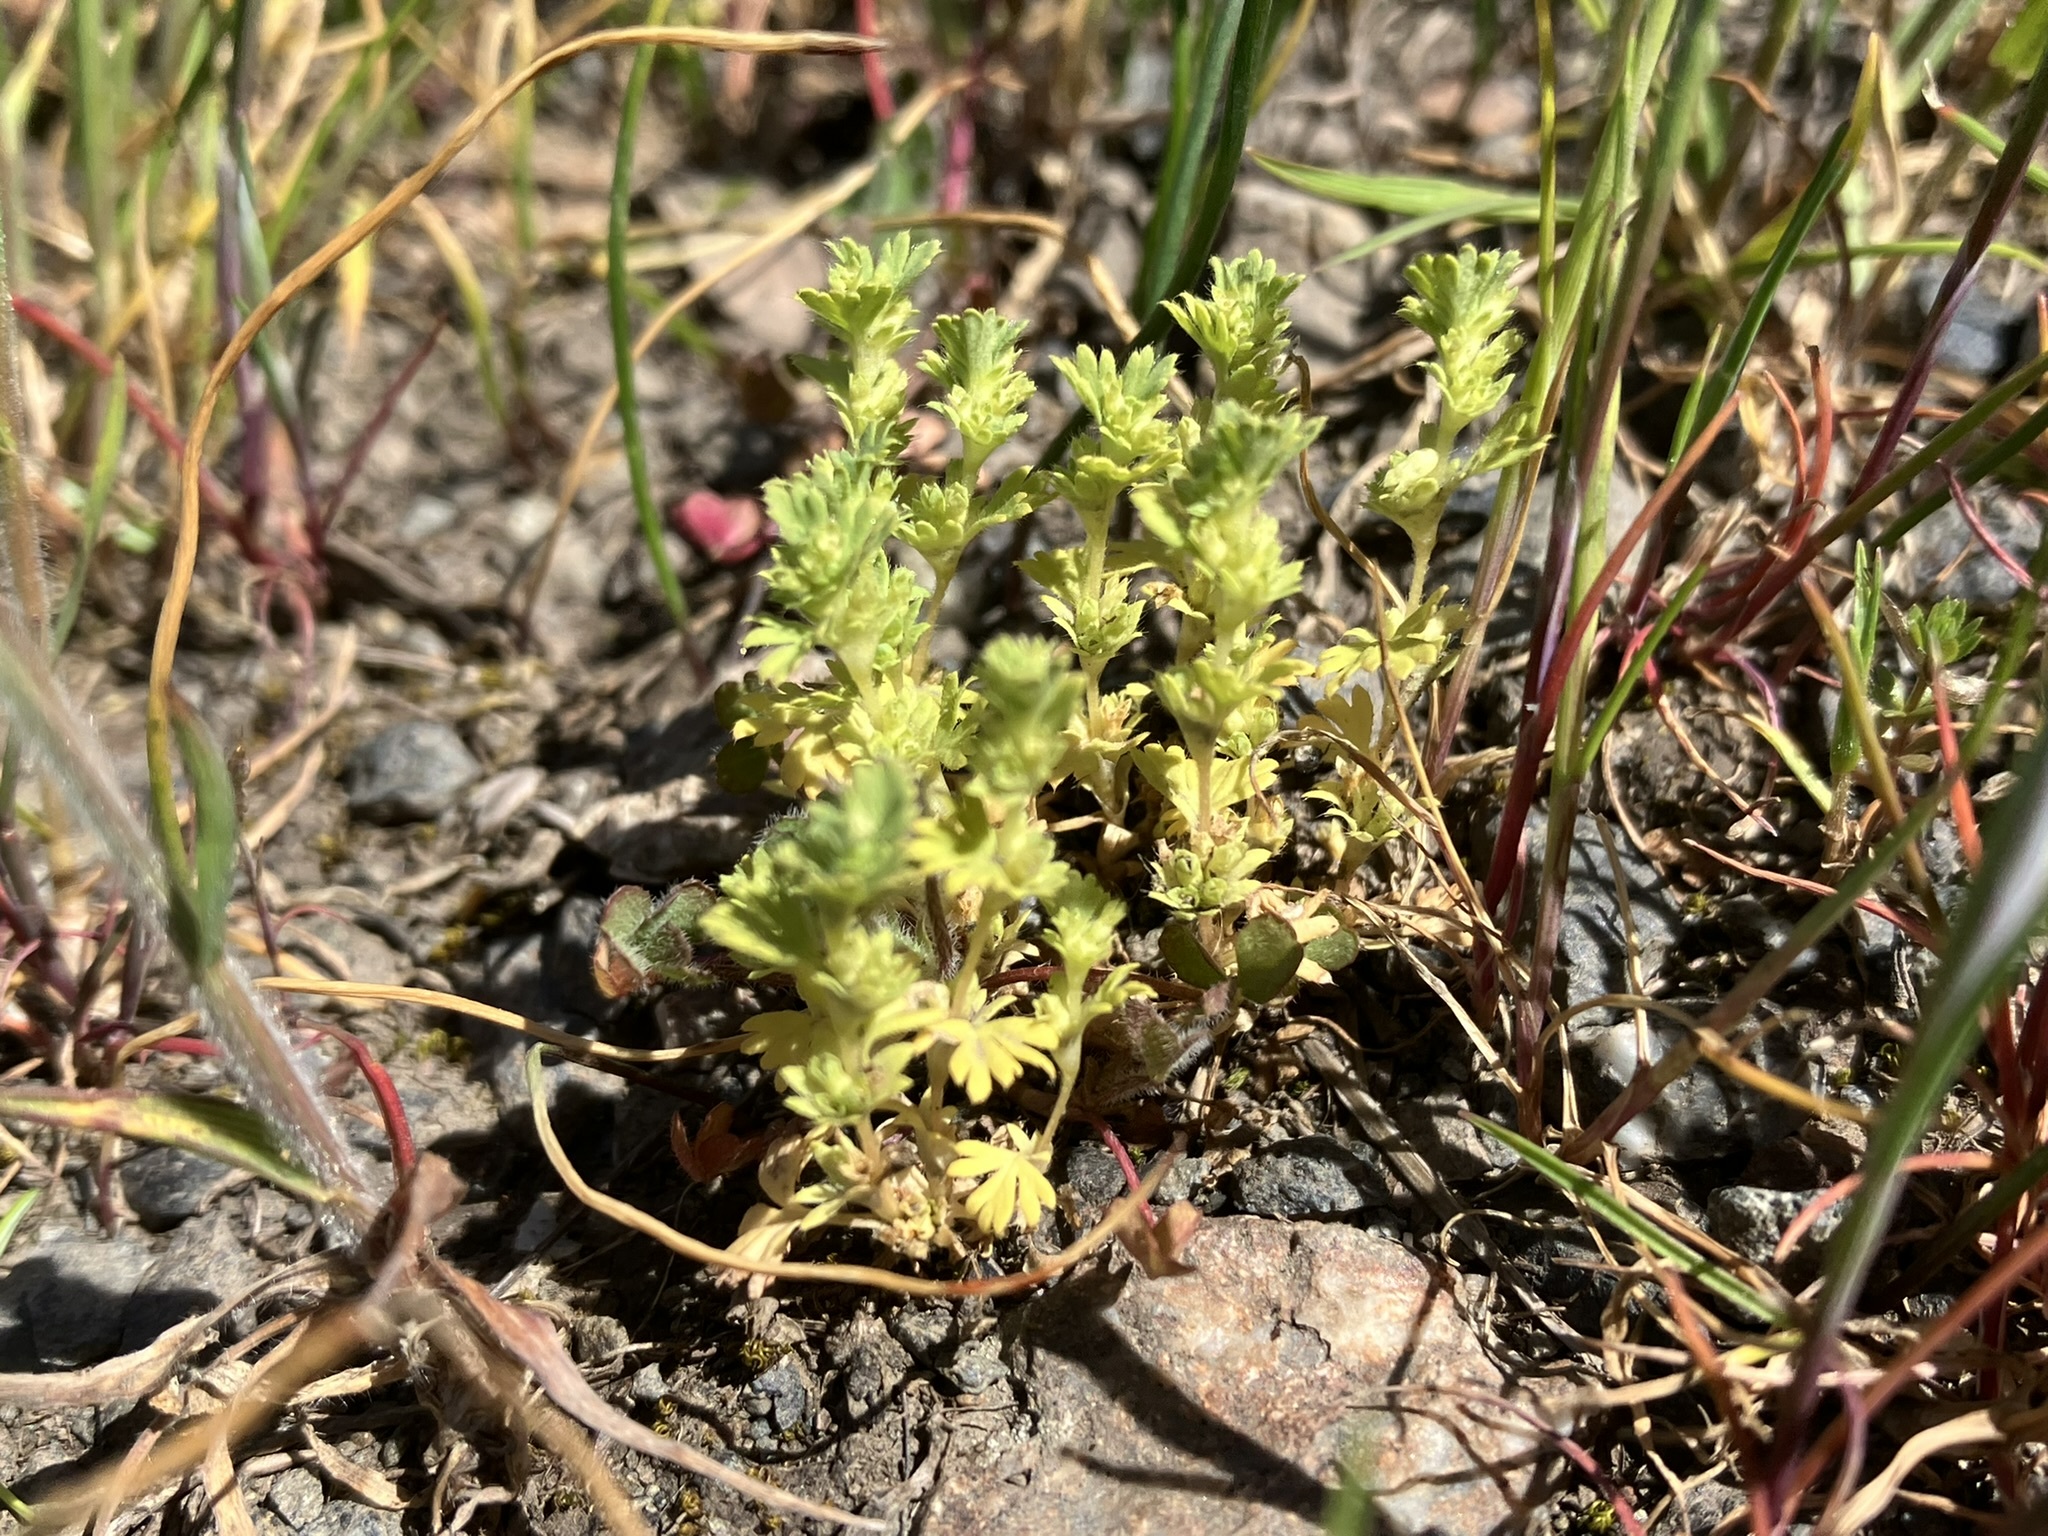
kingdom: Plantae
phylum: Tracheophyta
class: Magnoliopsida
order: Rosales
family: Rosaceae
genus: Aphanes
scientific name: Aphanes arvensis
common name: Parsley-piert
